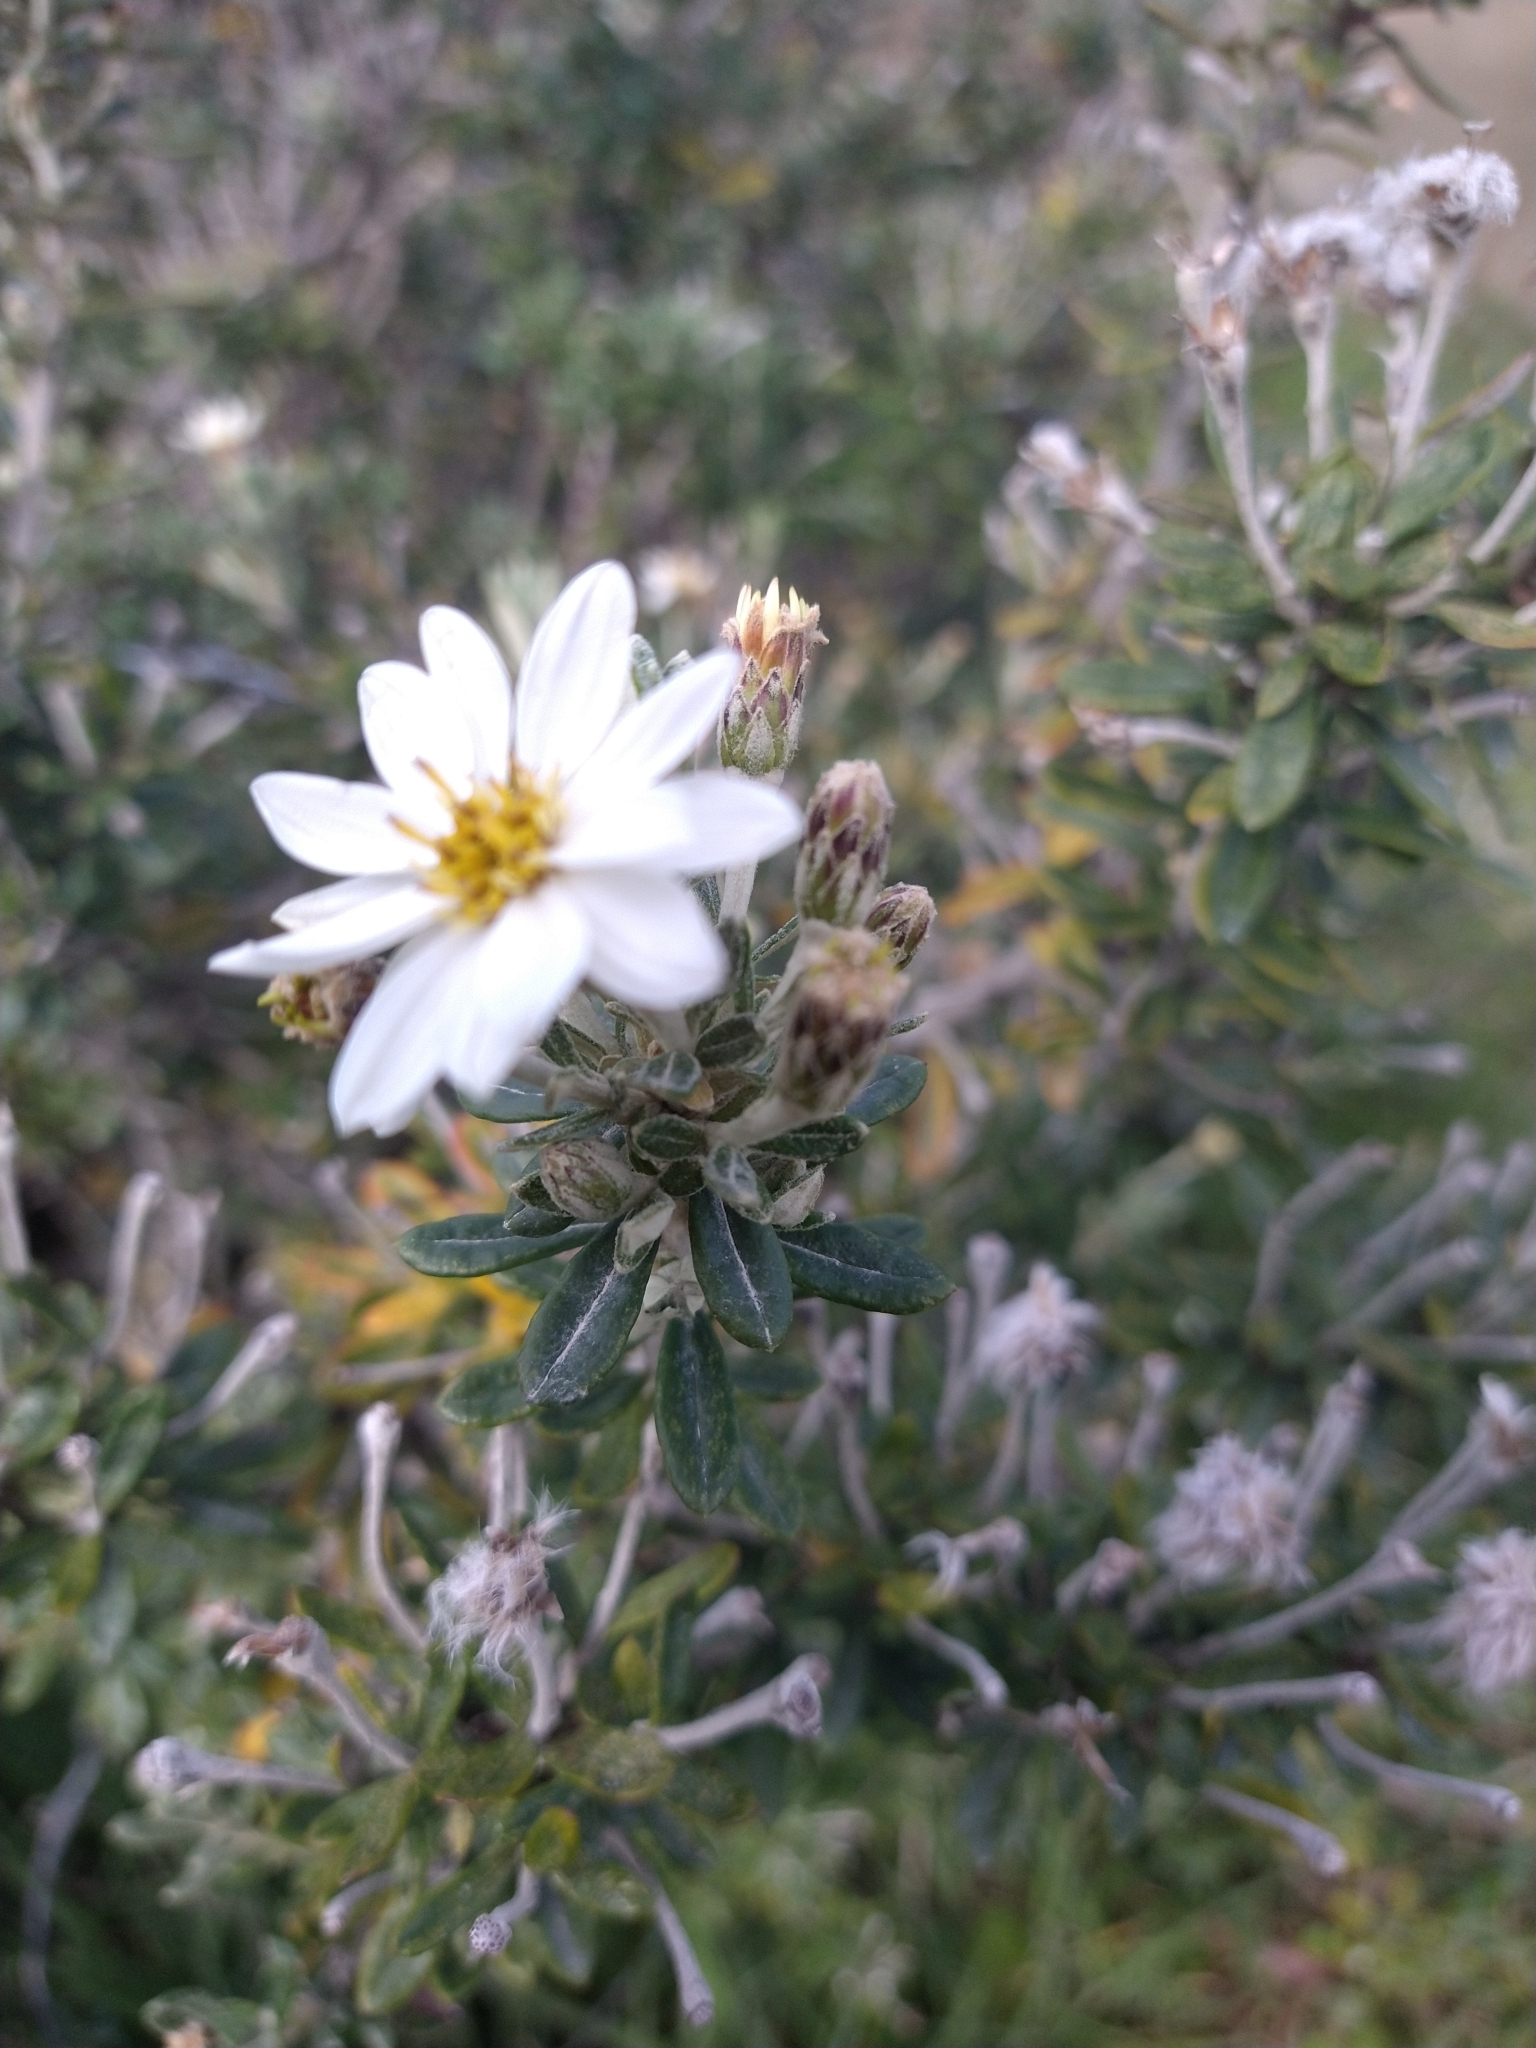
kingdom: Plantae
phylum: Tracheophyta
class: Magnoliopsida
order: Asterales
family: Asteraceae
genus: Chiliotrichum
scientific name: Chiliotrichum diffusum
